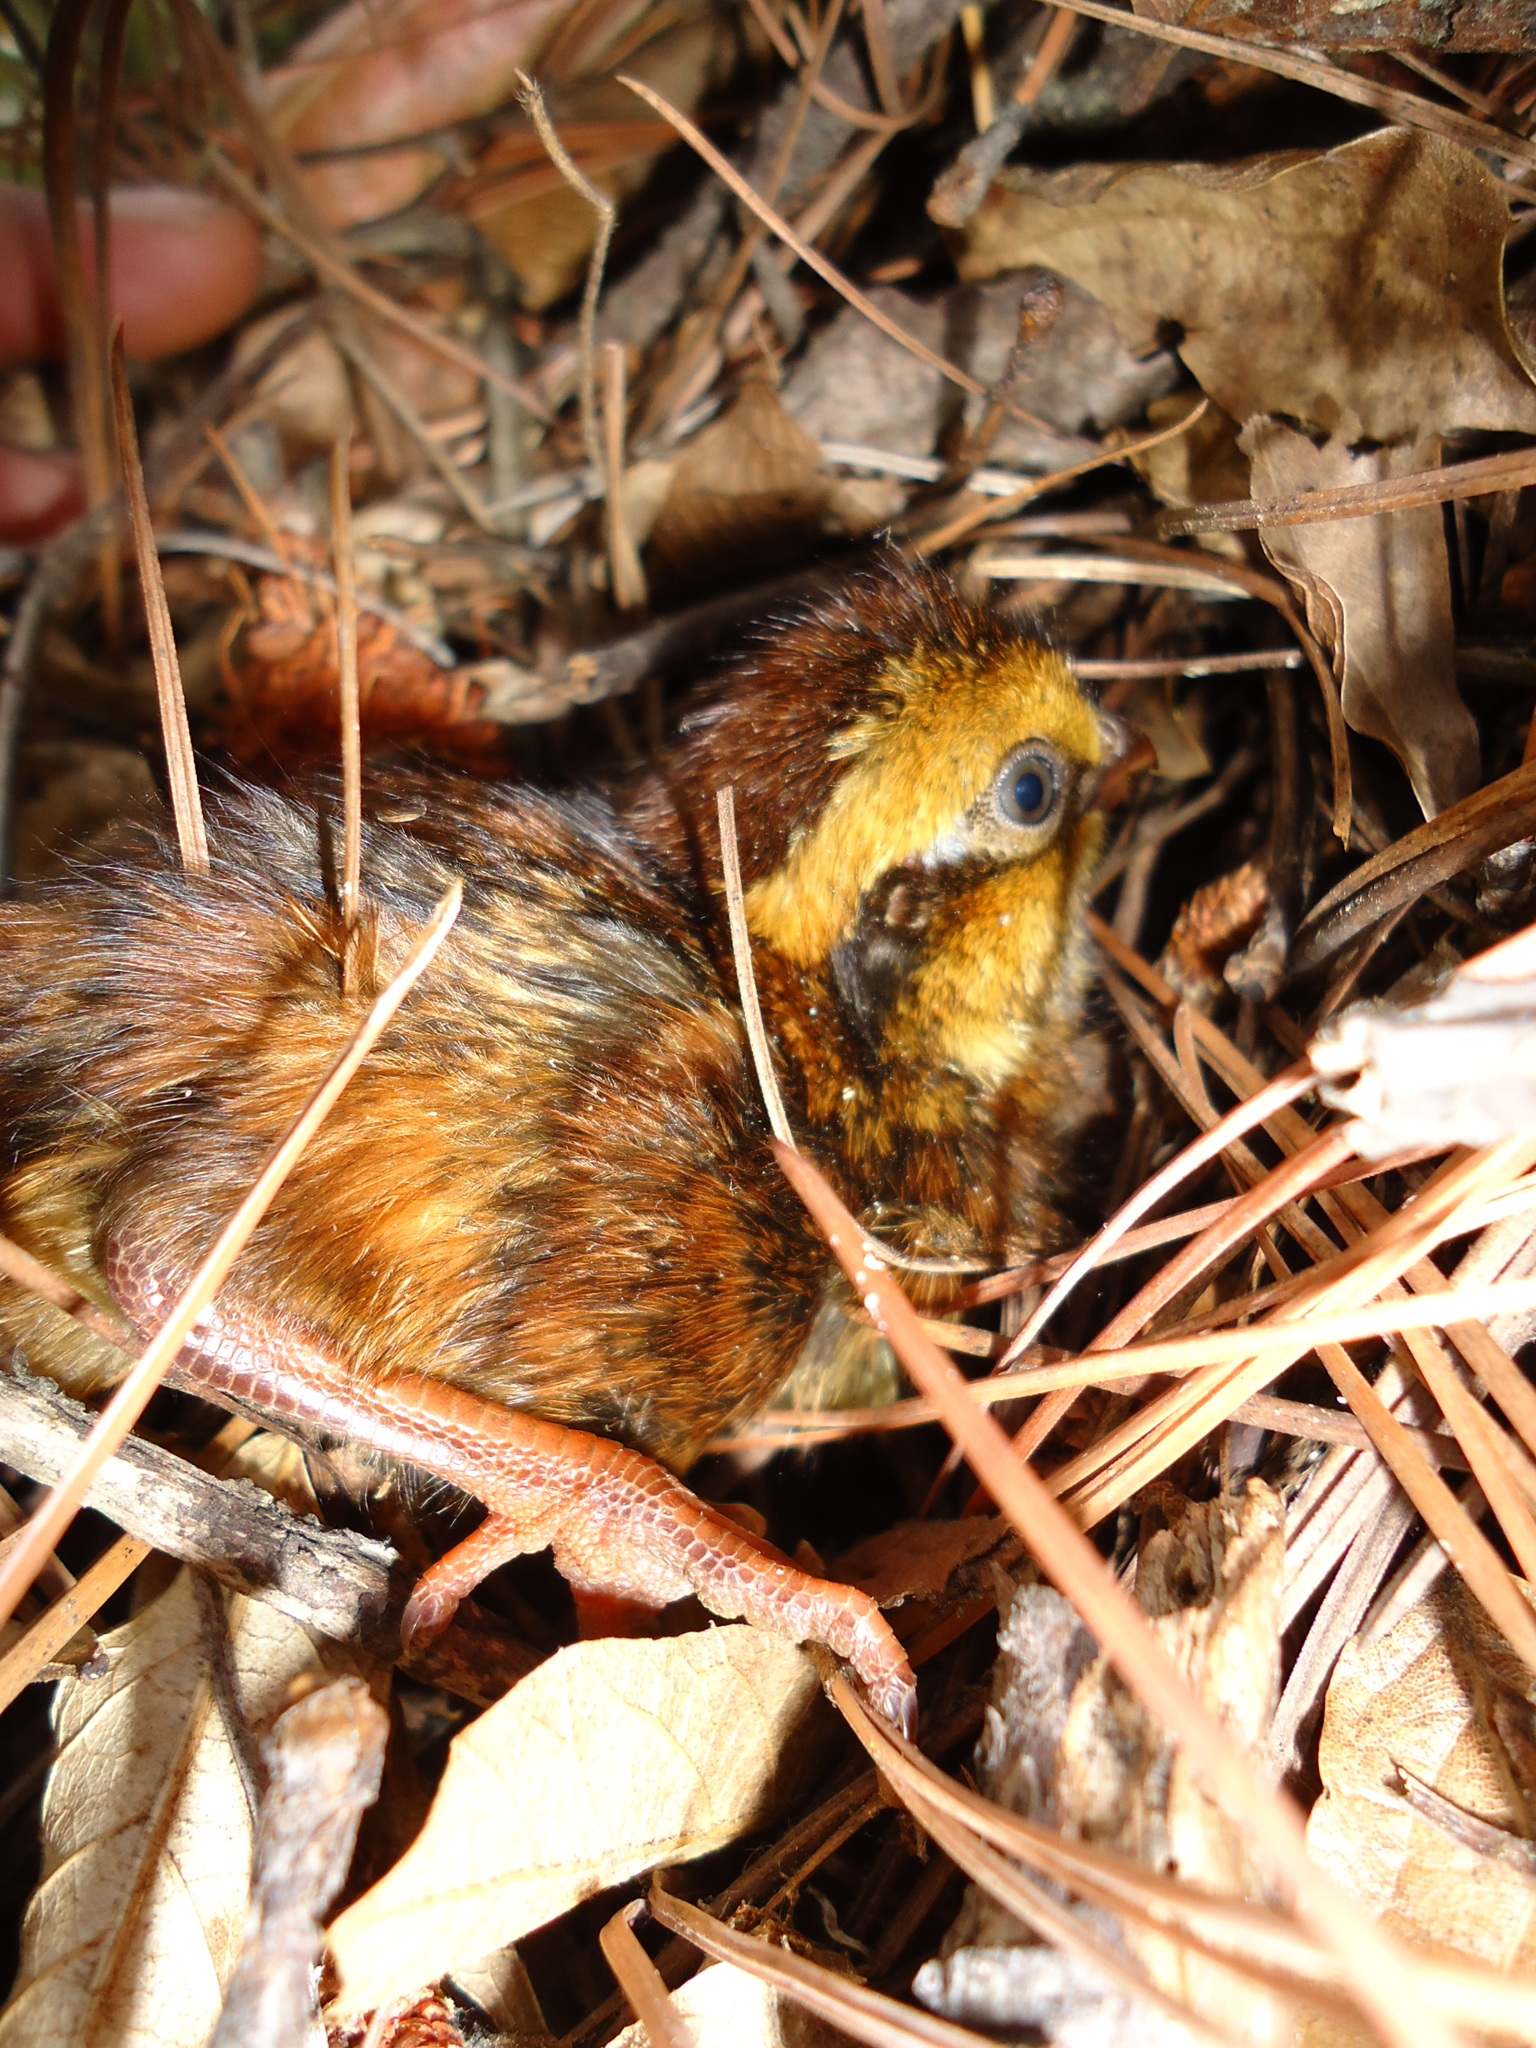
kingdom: Animalia
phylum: Chordata
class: Aves
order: Galliformes
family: Odontophoridae
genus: Dendrortyx
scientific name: Dendrortyx macroura
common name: Long-tailed wood-partridge
